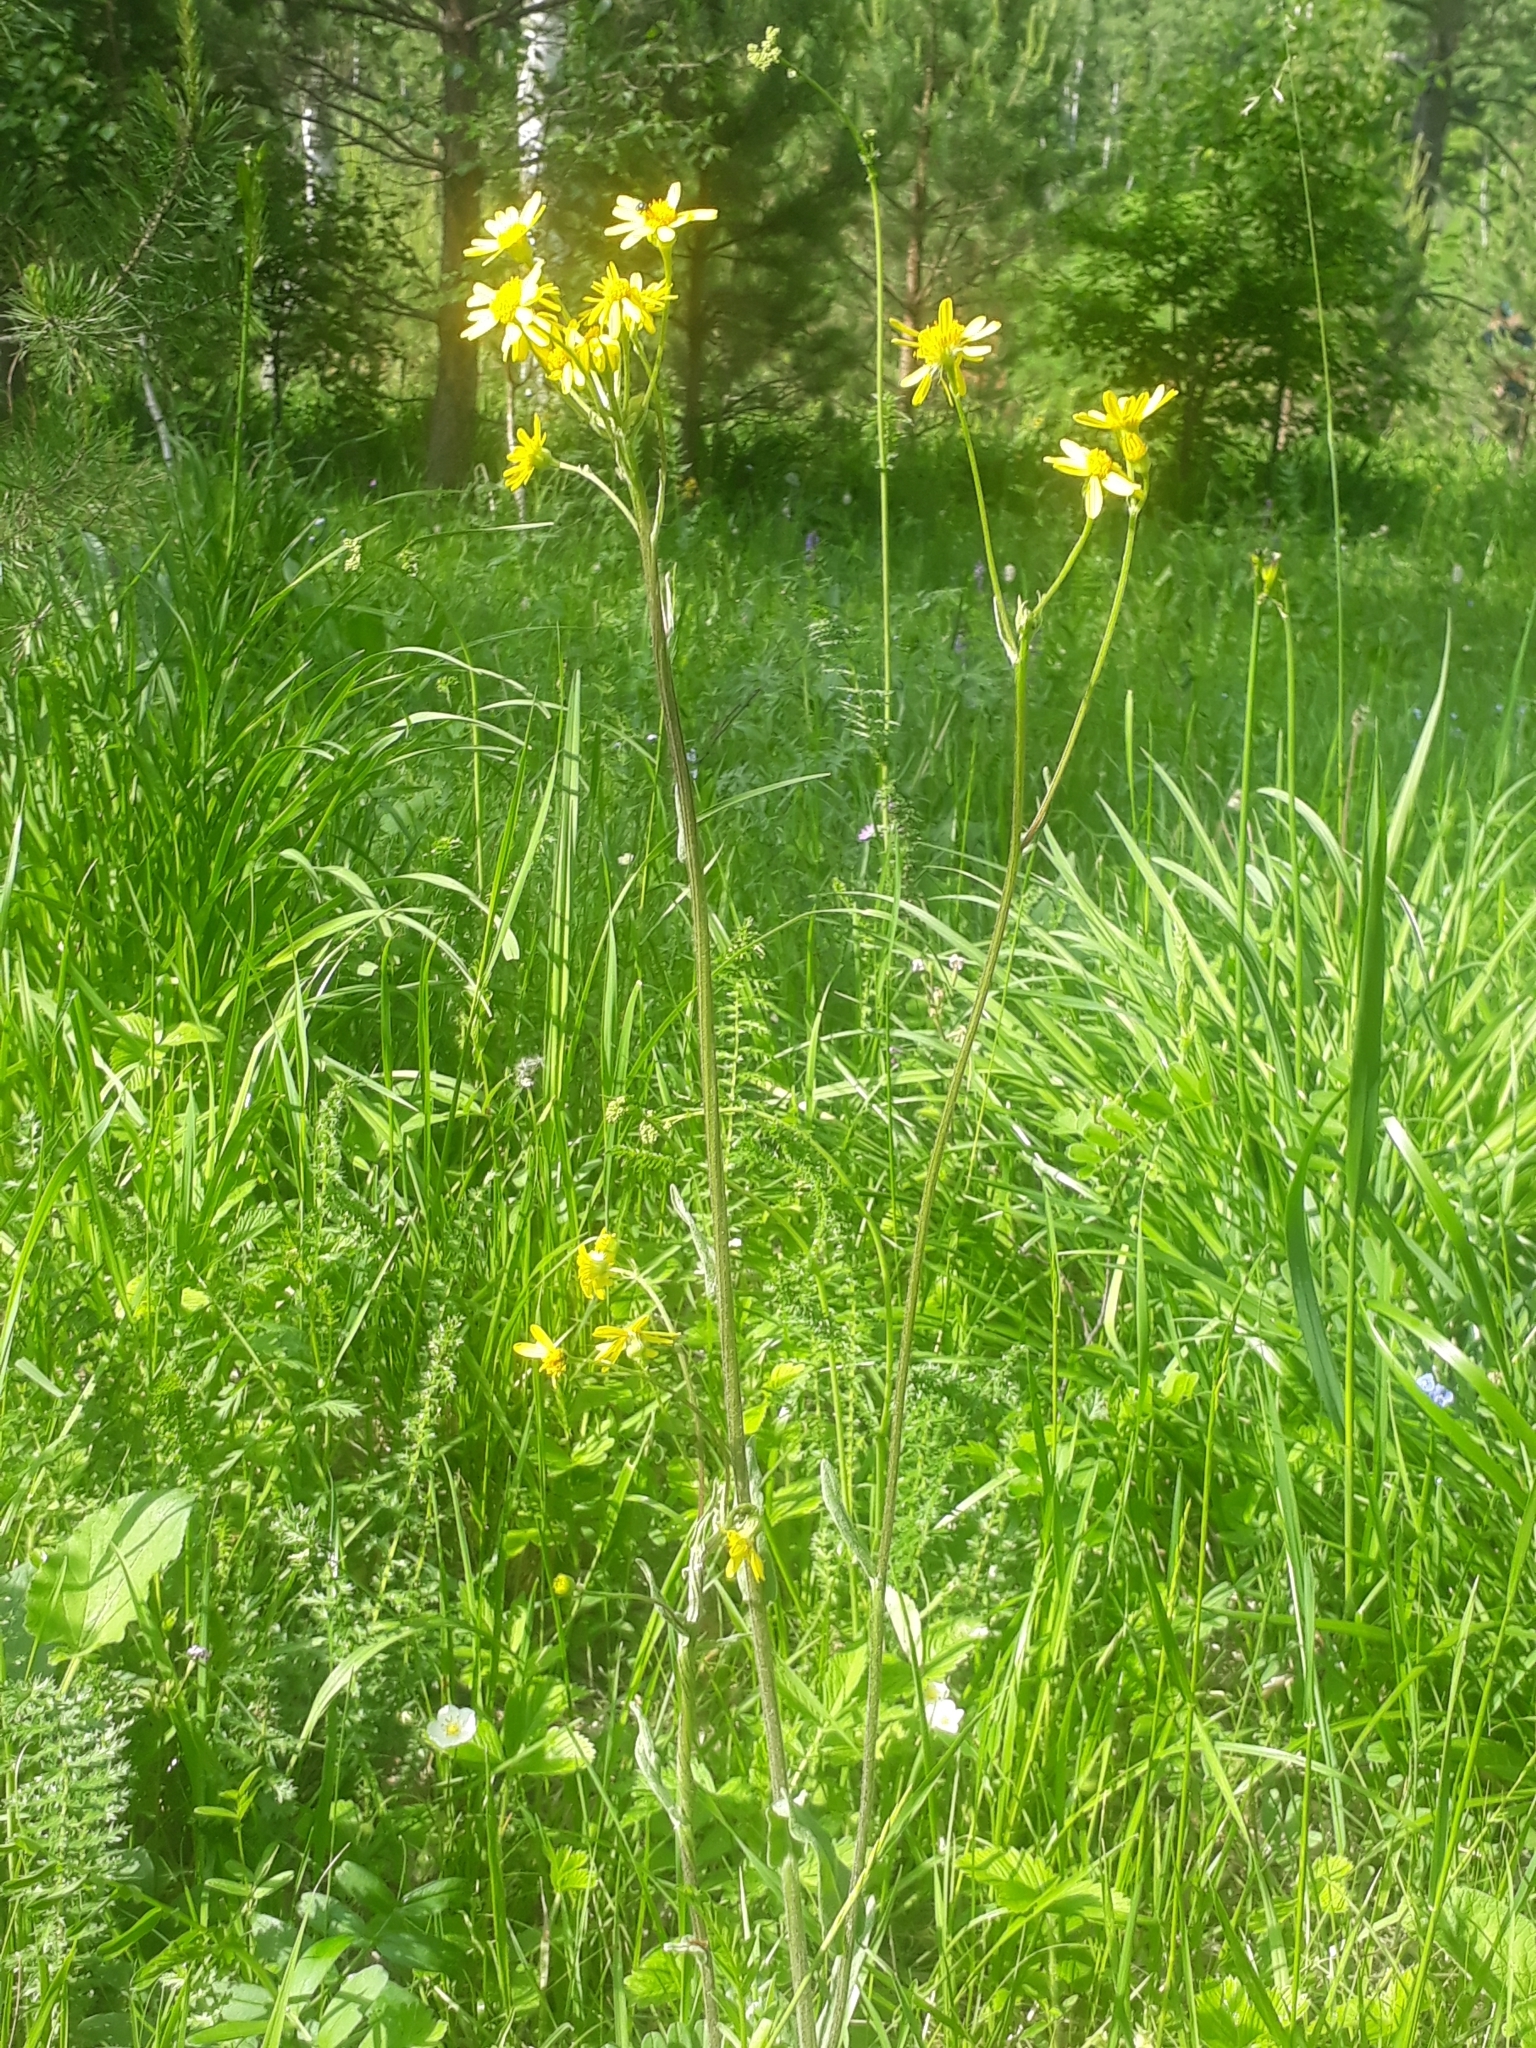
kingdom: Plantae
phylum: Tracheophyta
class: Magnoliopsida
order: Asterales
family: Asteraceae
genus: Tephroseris
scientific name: Tephroseris integrifolia
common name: Field fleawort
